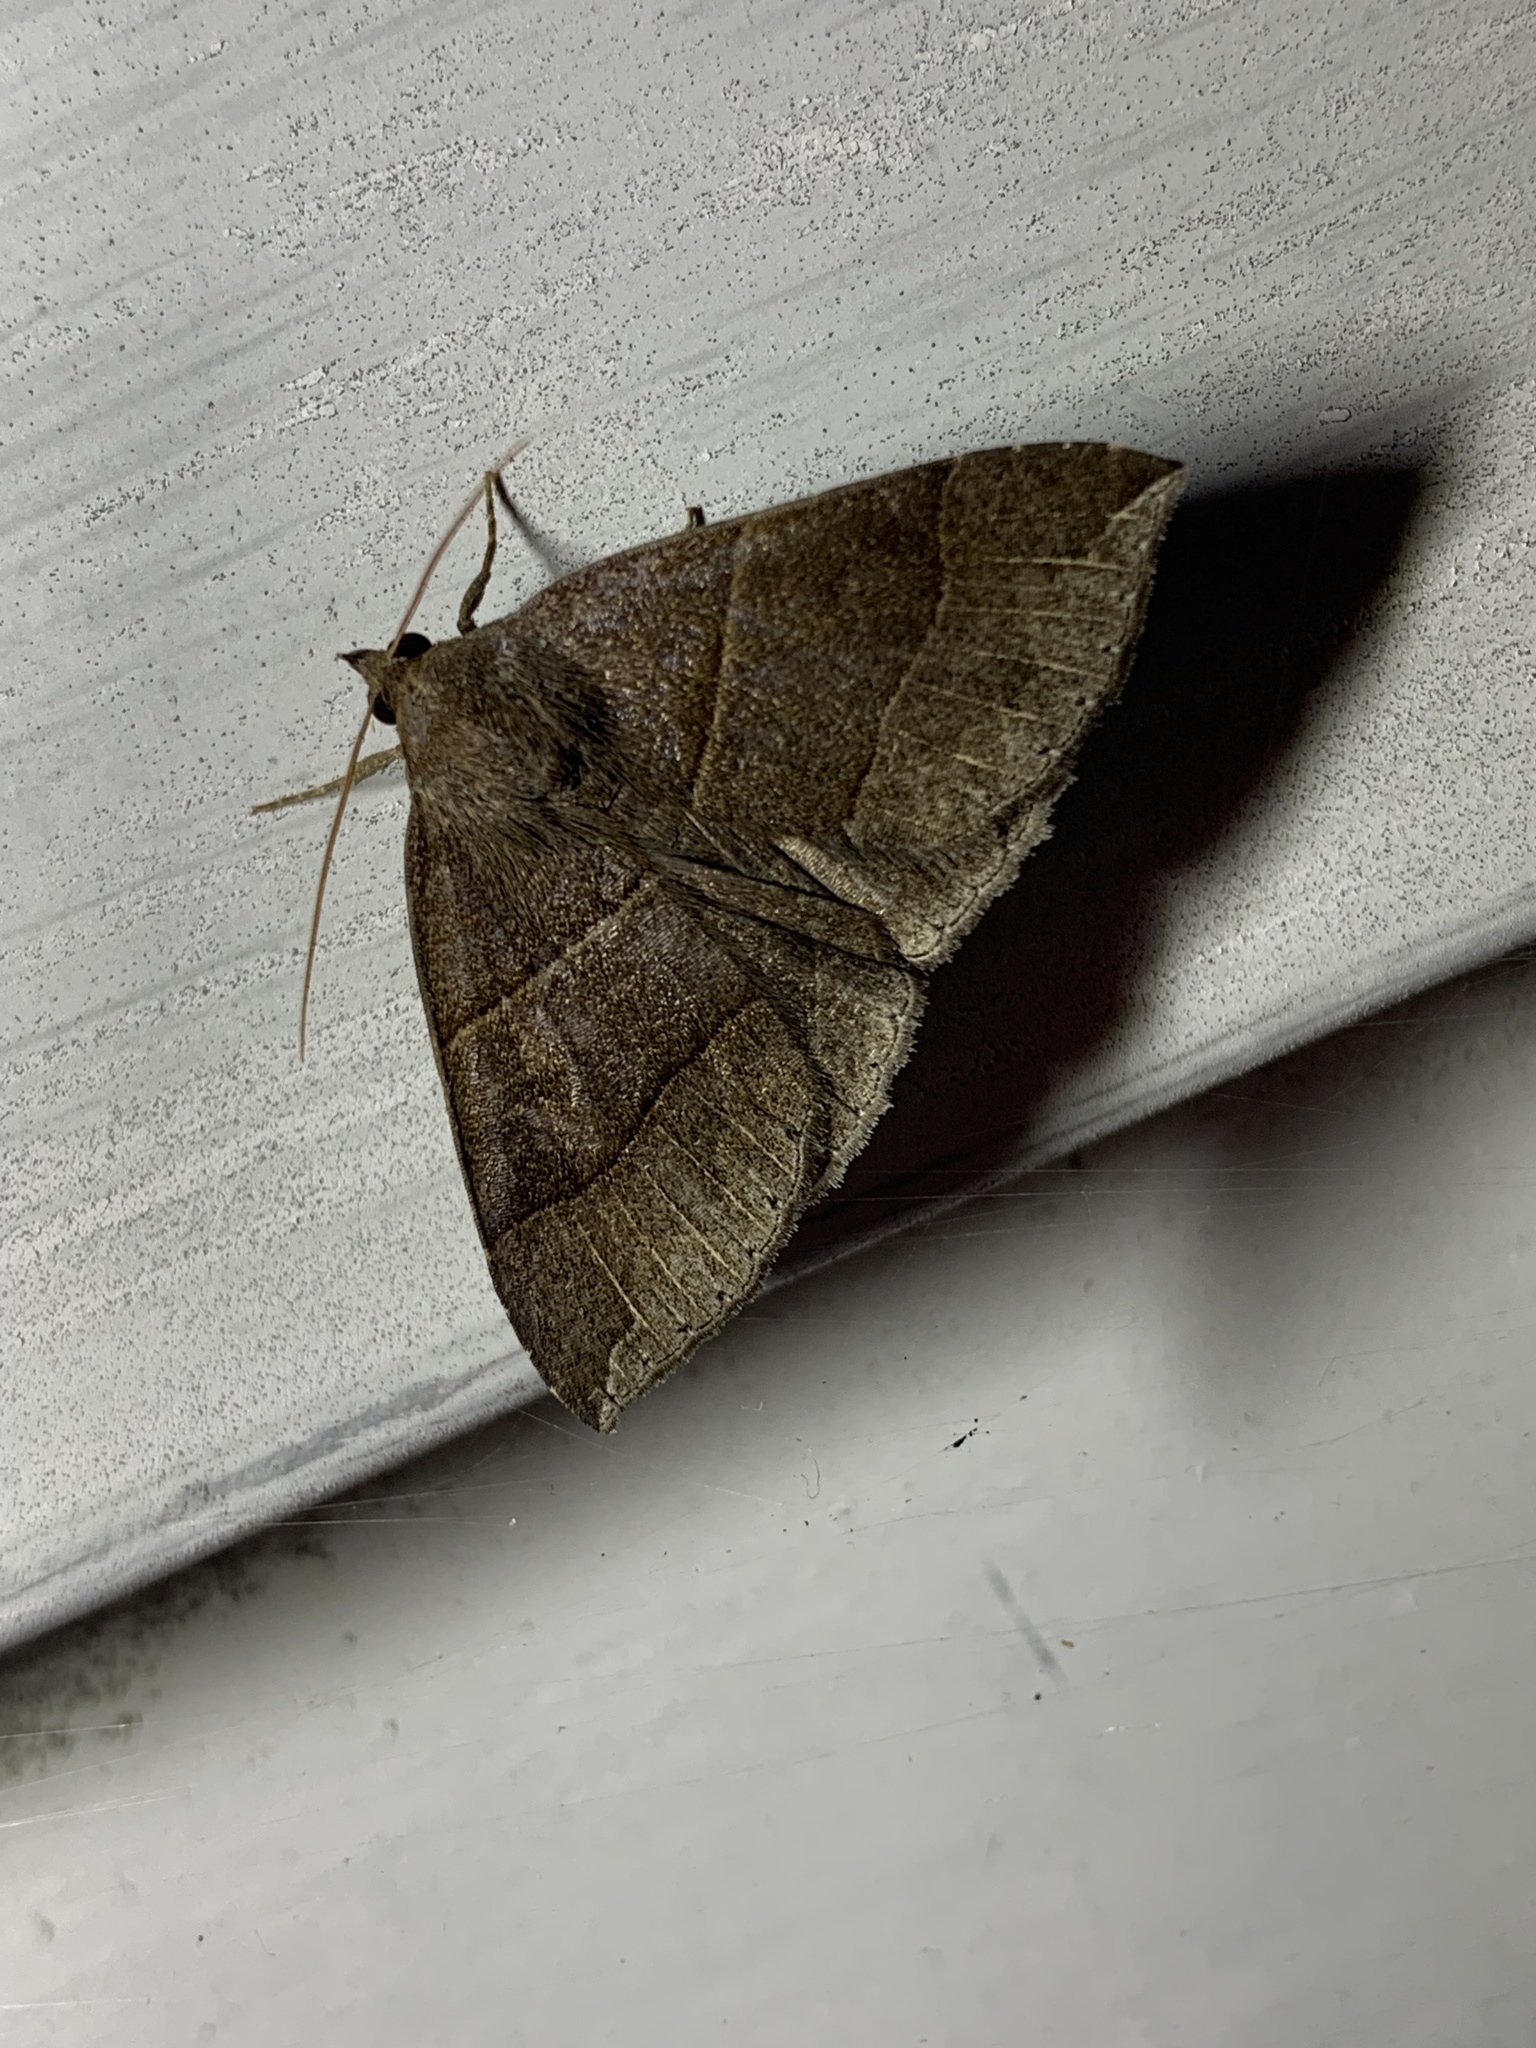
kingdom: Animalia
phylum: Arthropoda
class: Insecta
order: Lepidoptera
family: Erebidae
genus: Parallelia
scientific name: Parallelia bistriaris
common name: Maple looper moth
